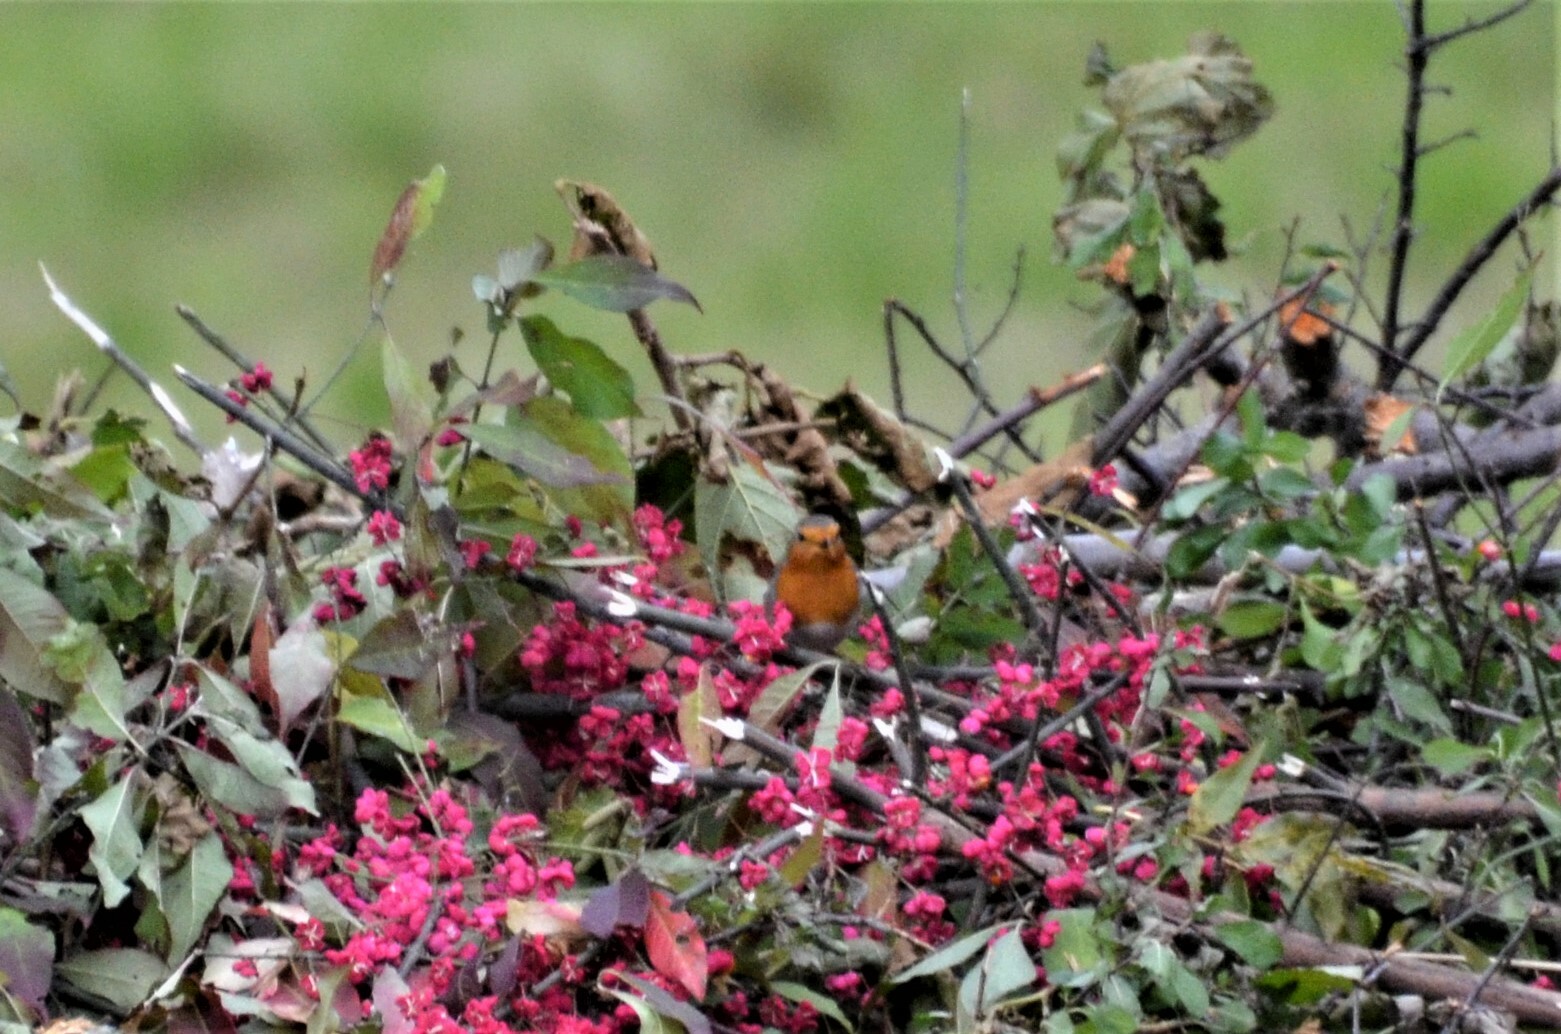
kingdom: Animalia
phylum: Chordata
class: Aves
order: Passeriformes
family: Muscicapidae
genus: Erithacus
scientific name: Erithacus rubecula
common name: European robin
